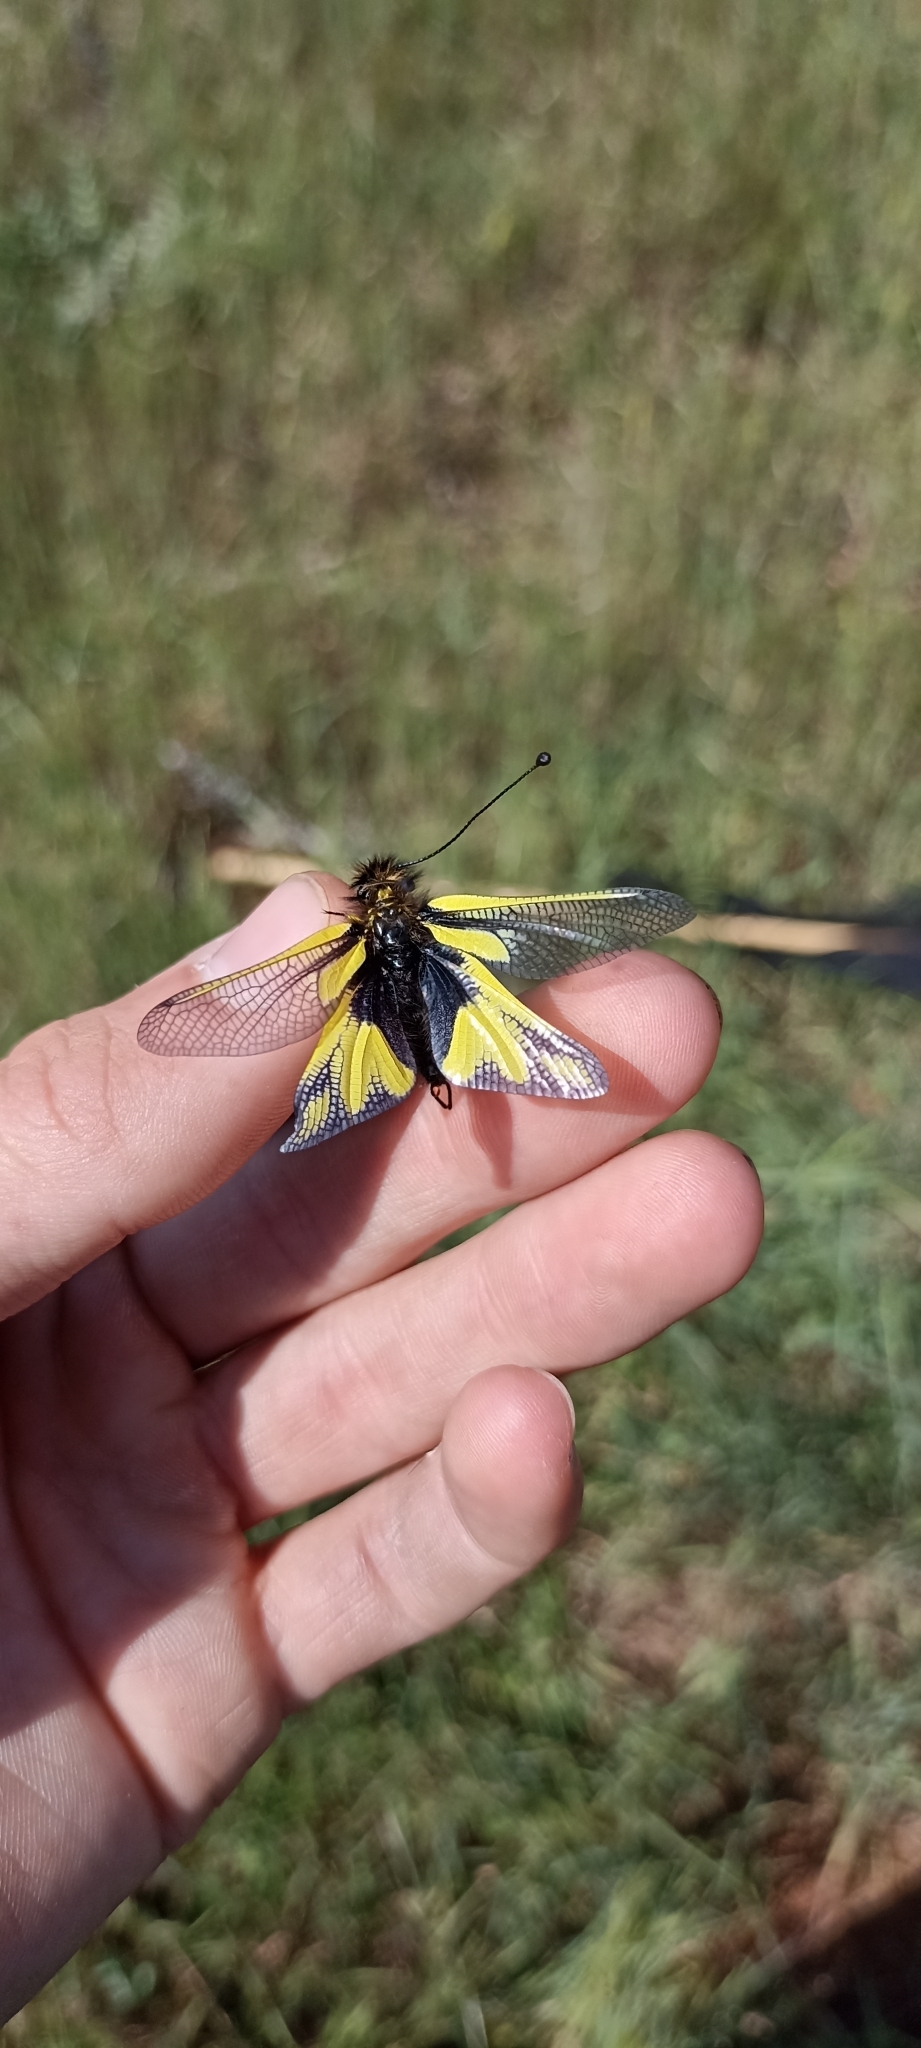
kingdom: Animalia
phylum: Arthropoda
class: Insecta
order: Neuroptera
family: Ascalaphidae
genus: Libelloides
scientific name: Libelloides coccajus
